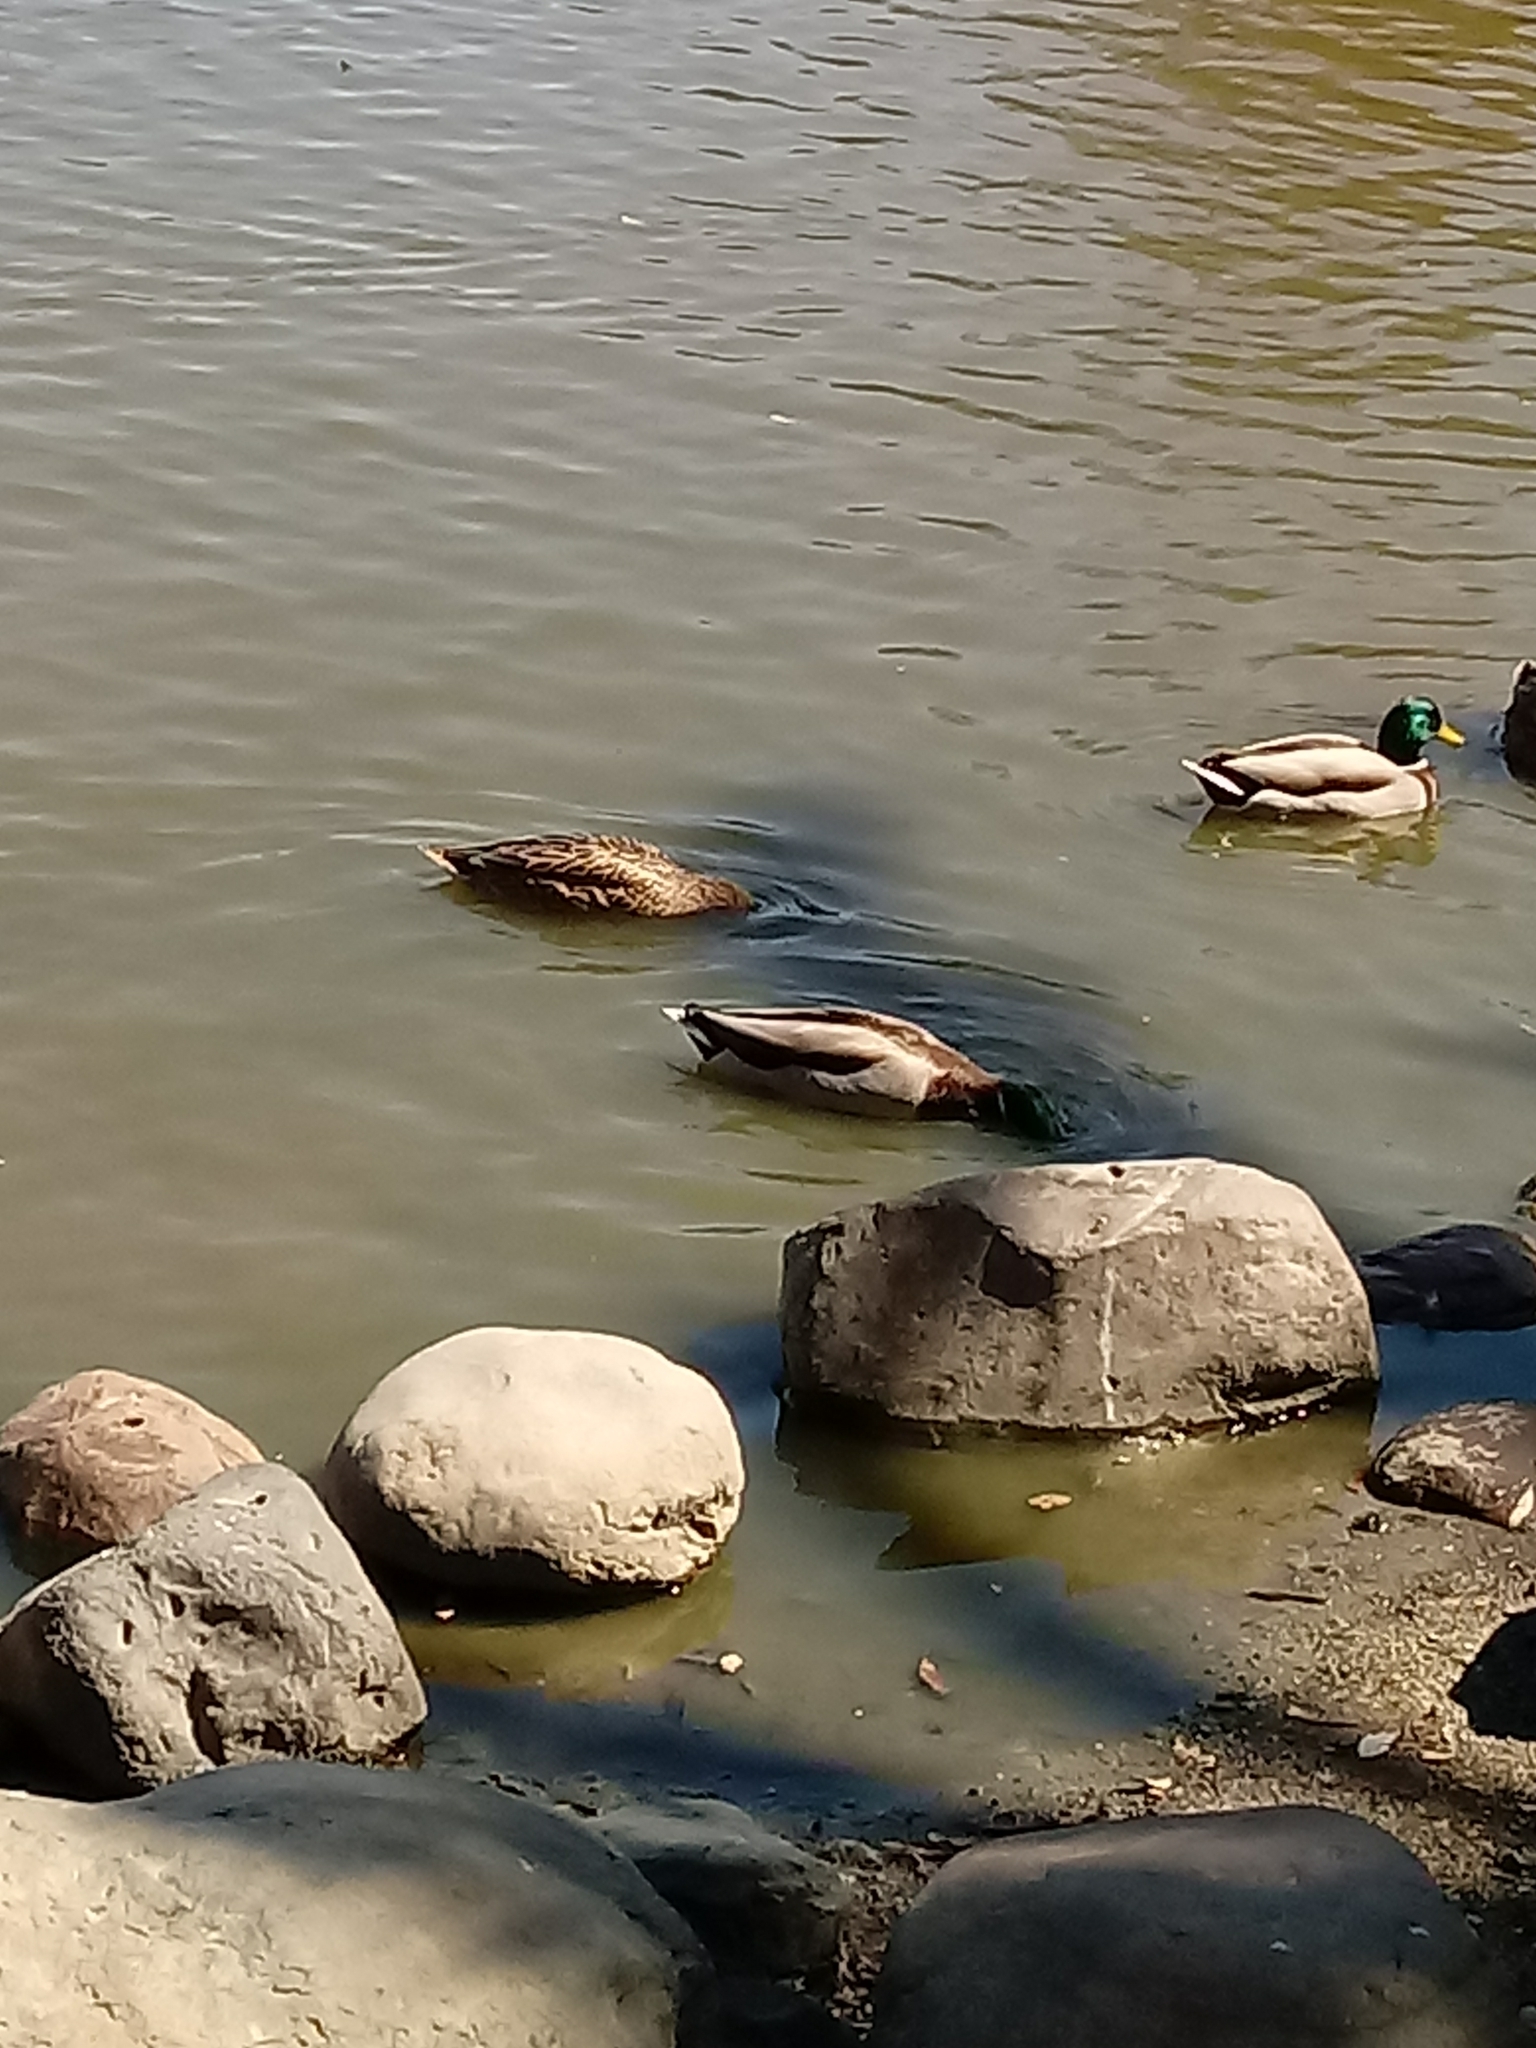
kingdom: Animalia
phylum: Chordata
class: Aves
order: Anseriformes
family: Anatidae
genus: Anas
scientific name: Anas platyrhynchos
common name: Mallard
